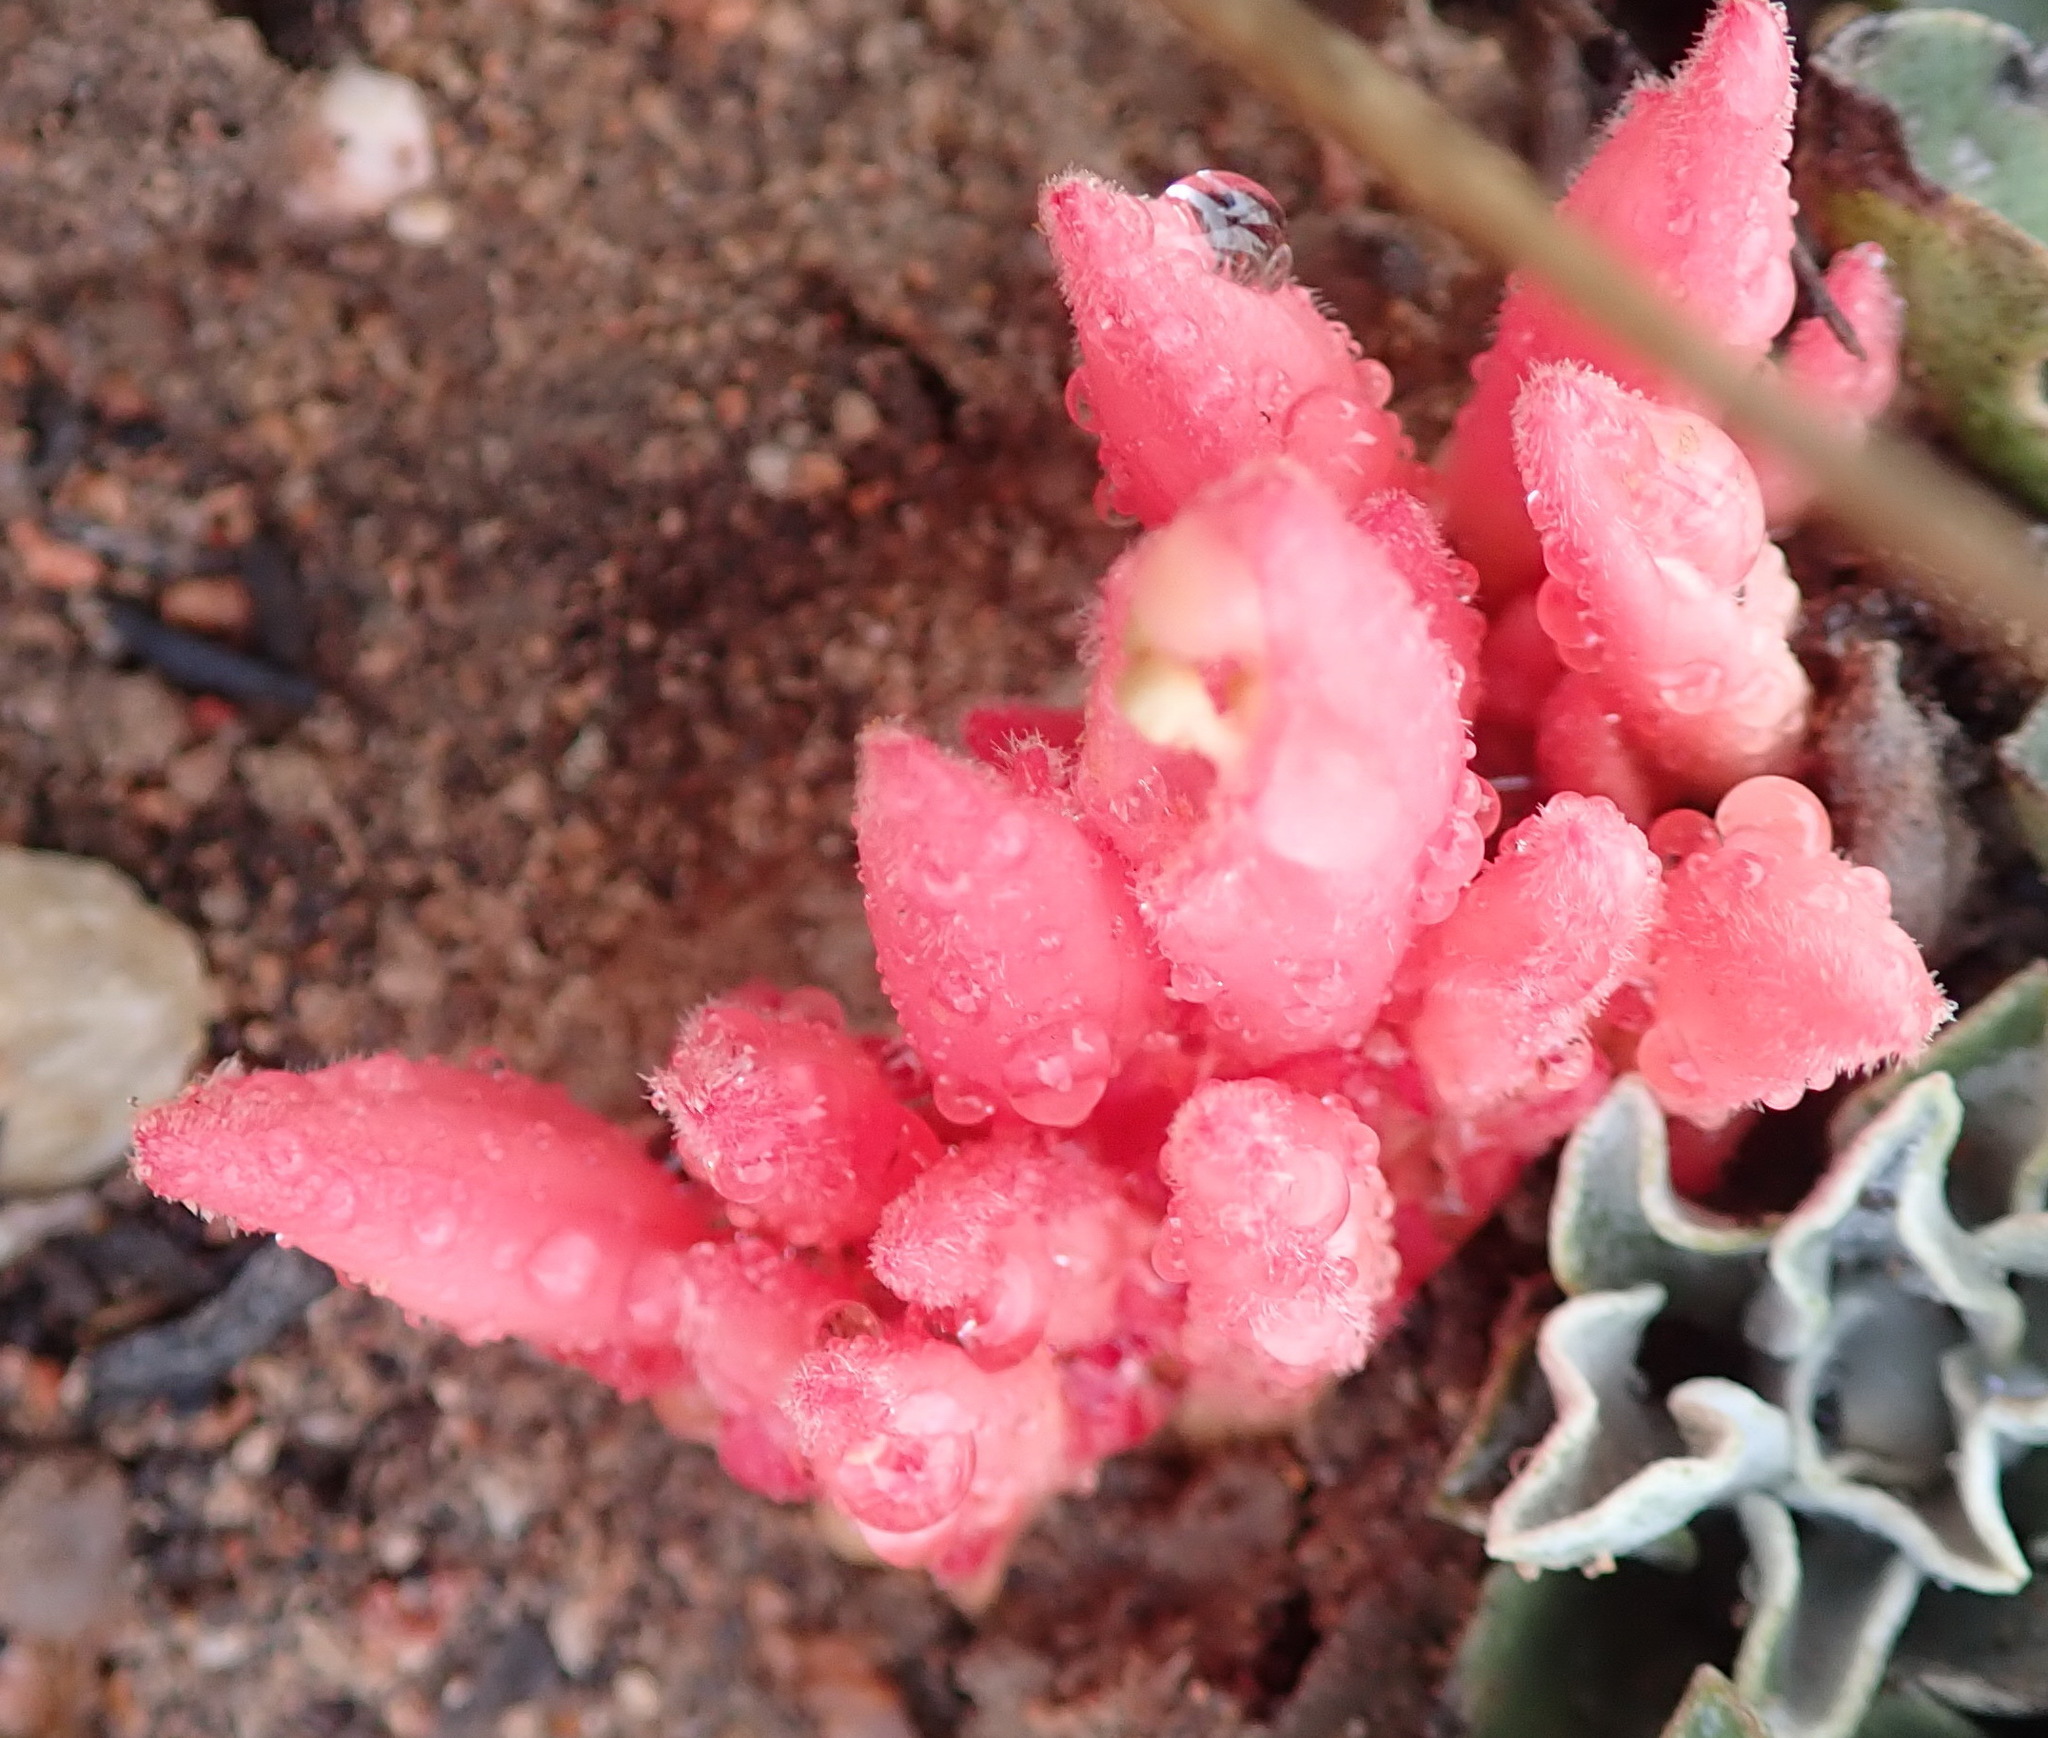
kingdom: Plantae
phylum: Tracheophyta
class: Magnoliopsida
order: Lamiales
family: Orobanchaceae
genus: Hyobanche
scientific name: Hyobanche glabrata
